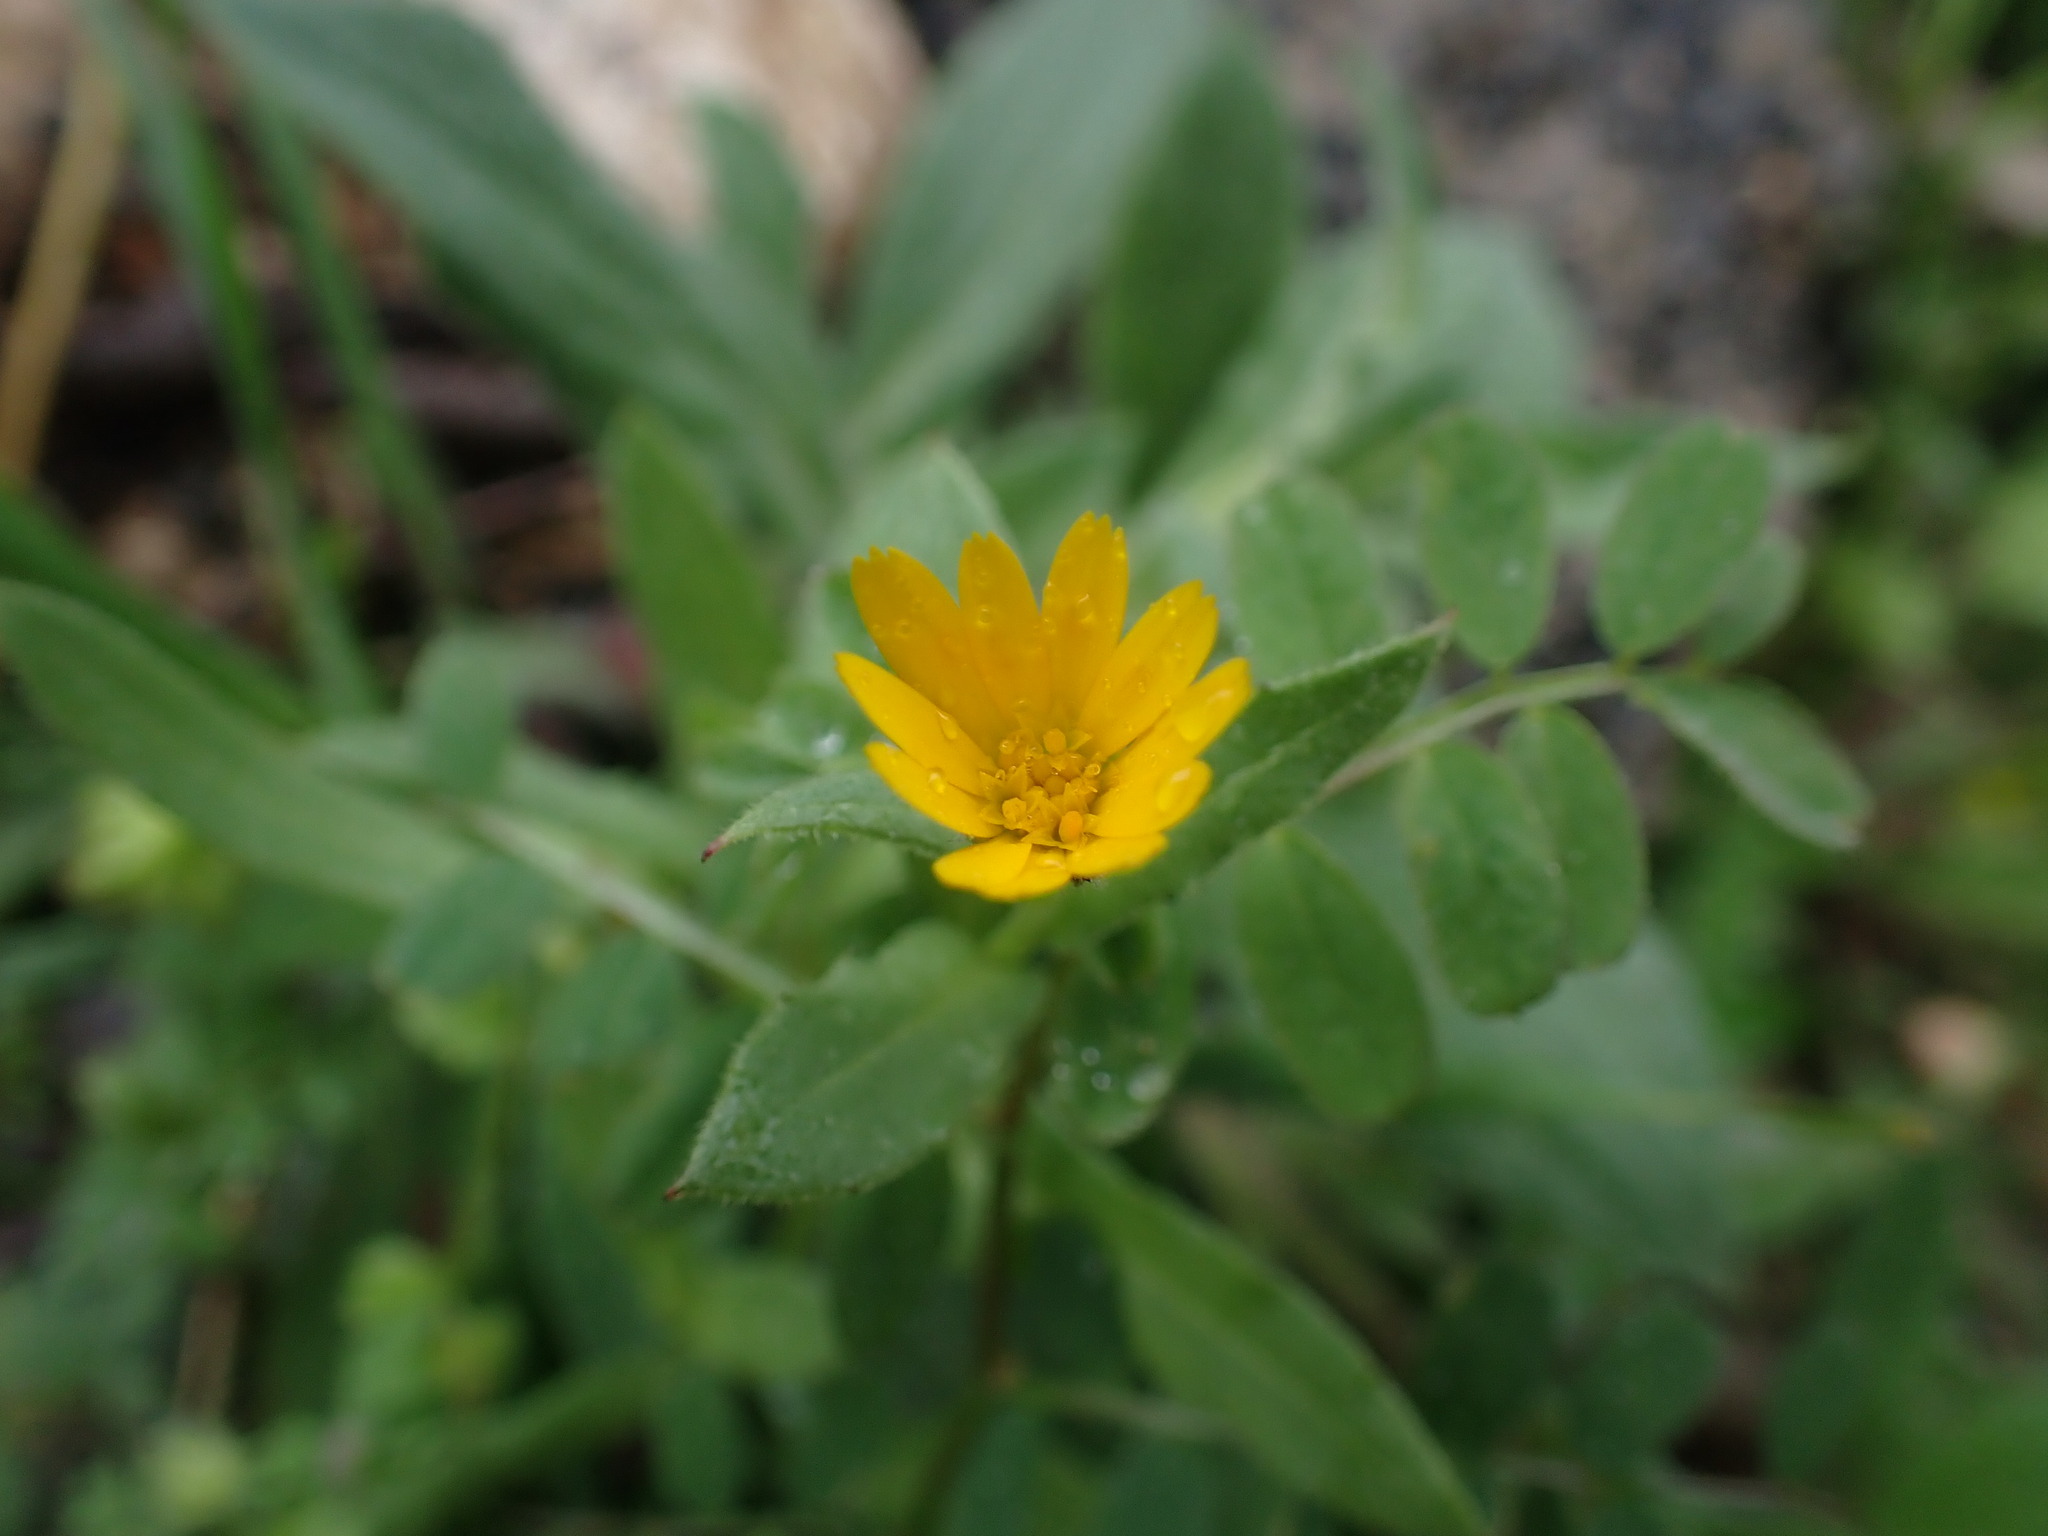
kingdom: Plantae
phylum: Tracheophyta
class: Magnoliopsida
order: Asterales
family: Asteraceae
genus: Calendula
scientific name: Calendula arvensis
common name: Field marigold
